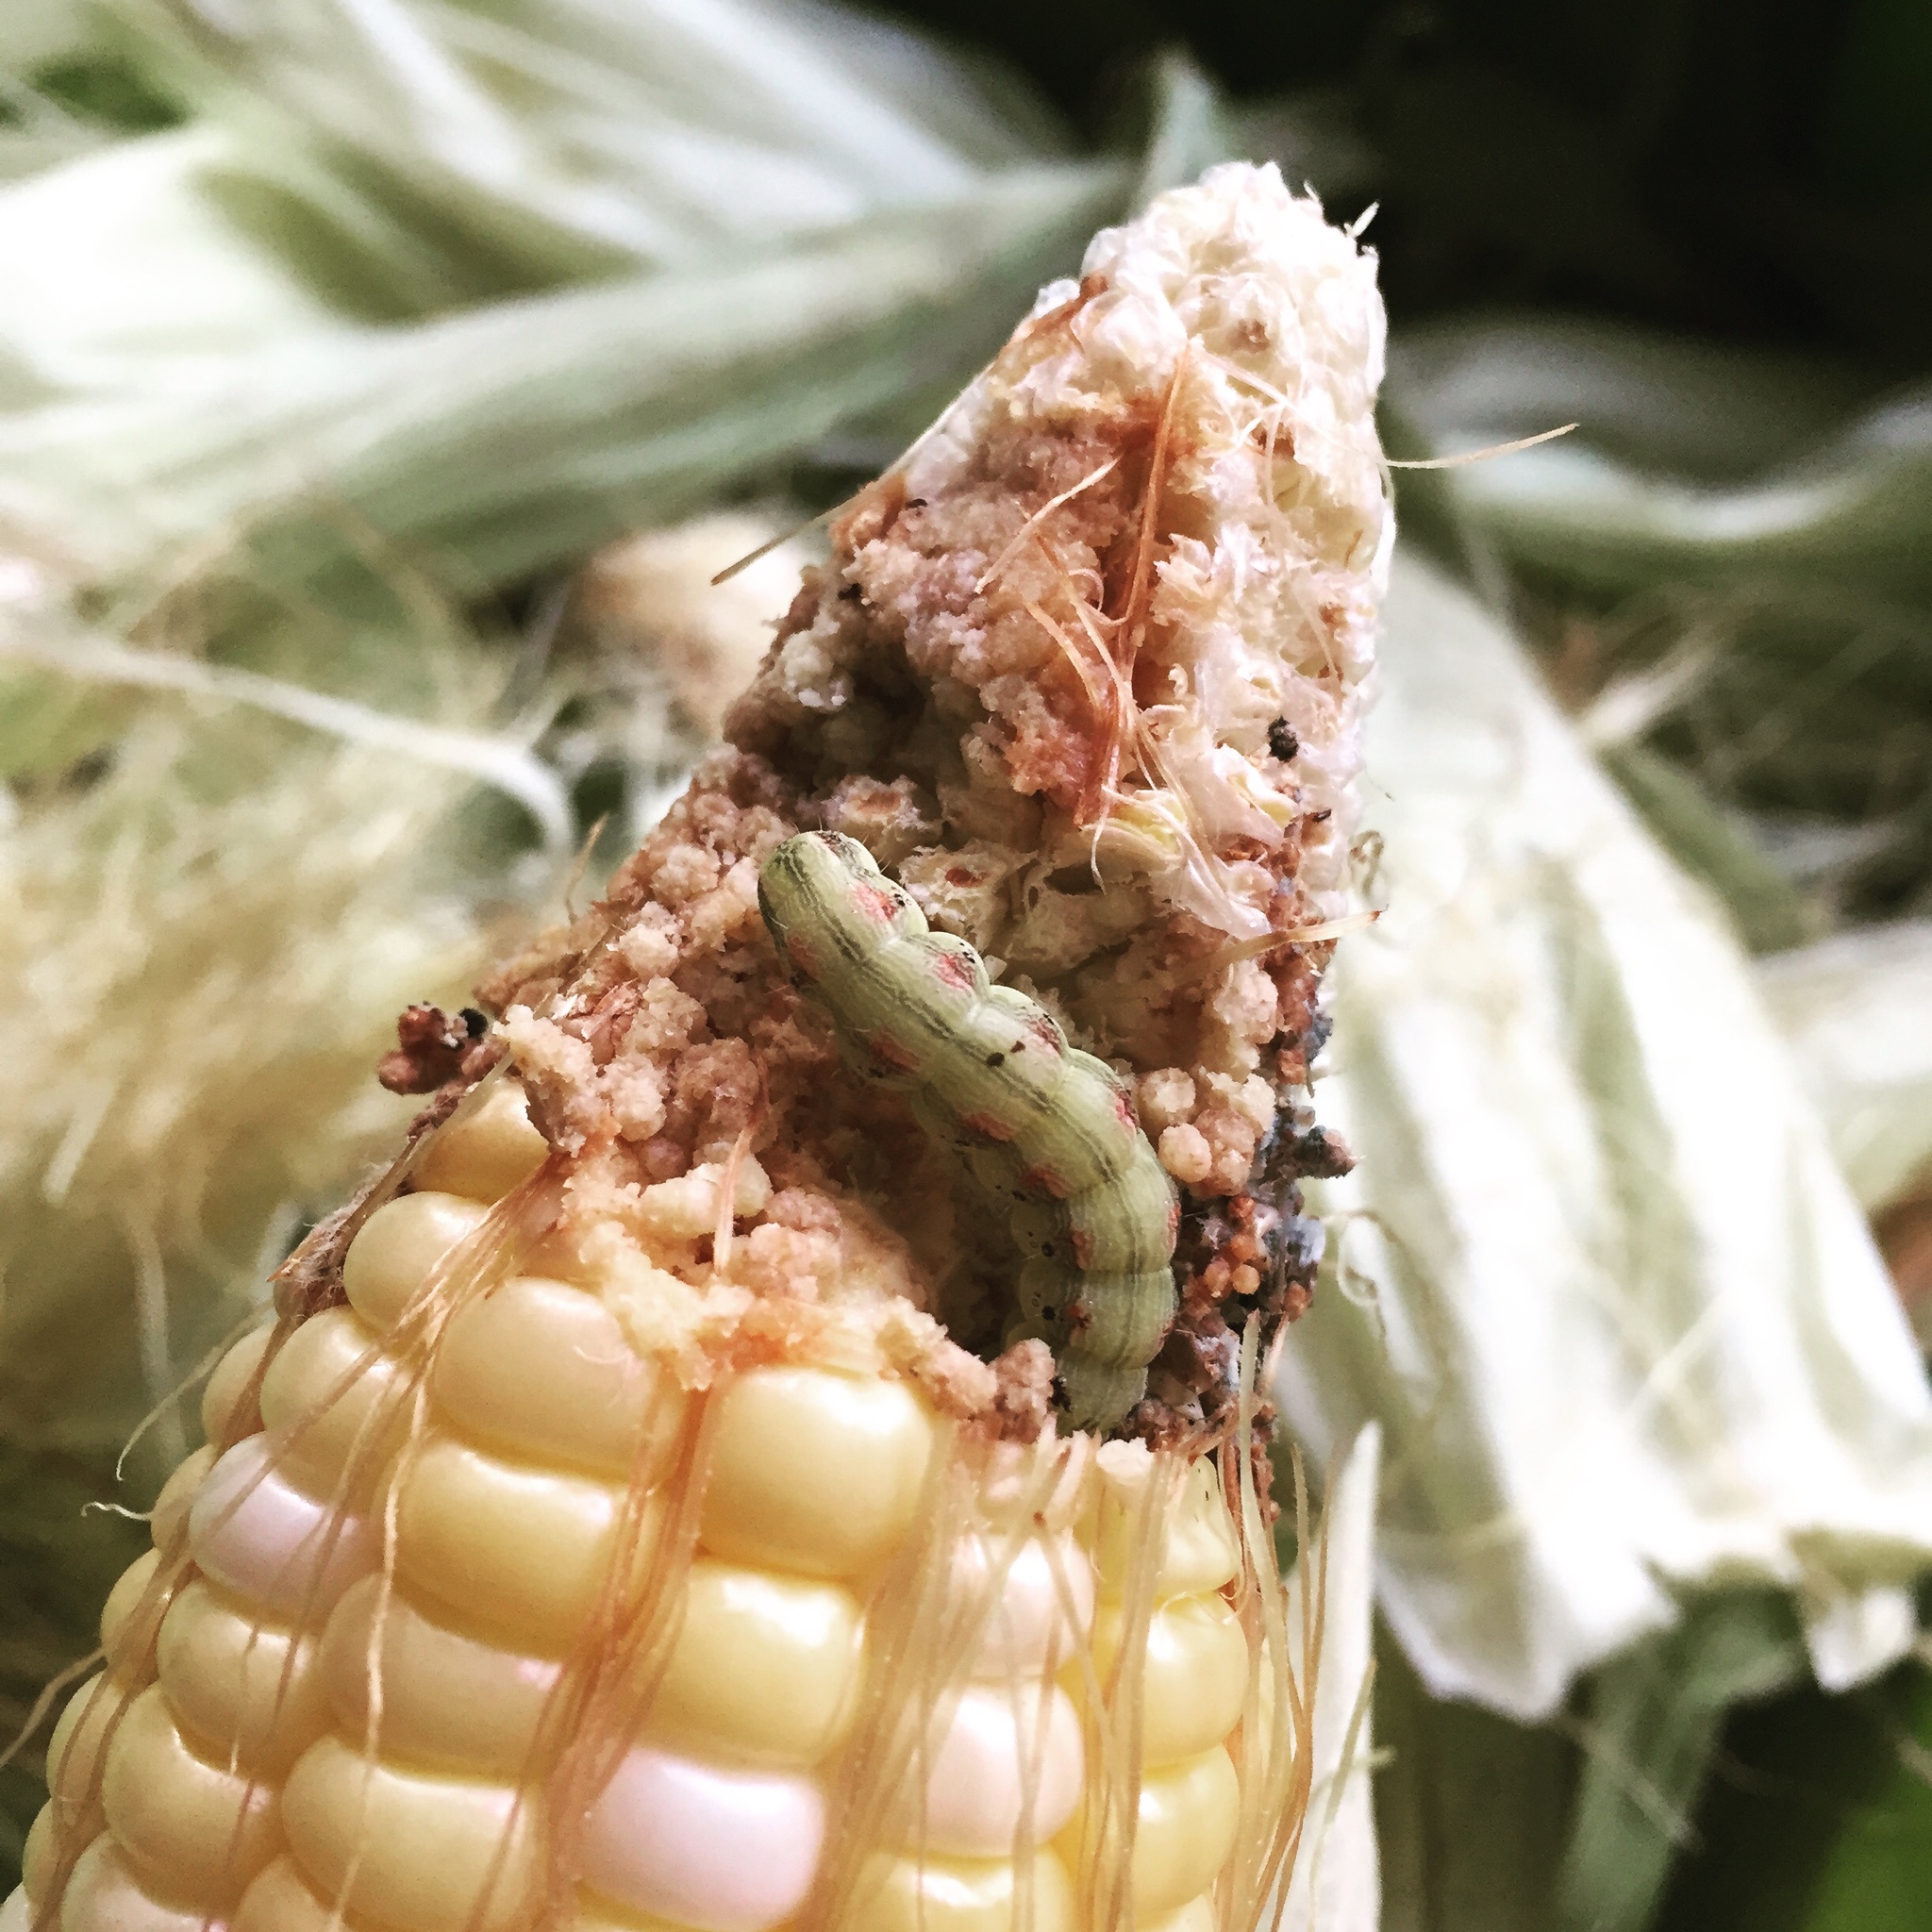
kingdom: Animalia
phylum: Arthropoda
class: Insecta
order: Lepidoptera
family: Noctuidae
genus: Helicoverpa
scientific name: Helicoverpa zea
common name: Bollworm
